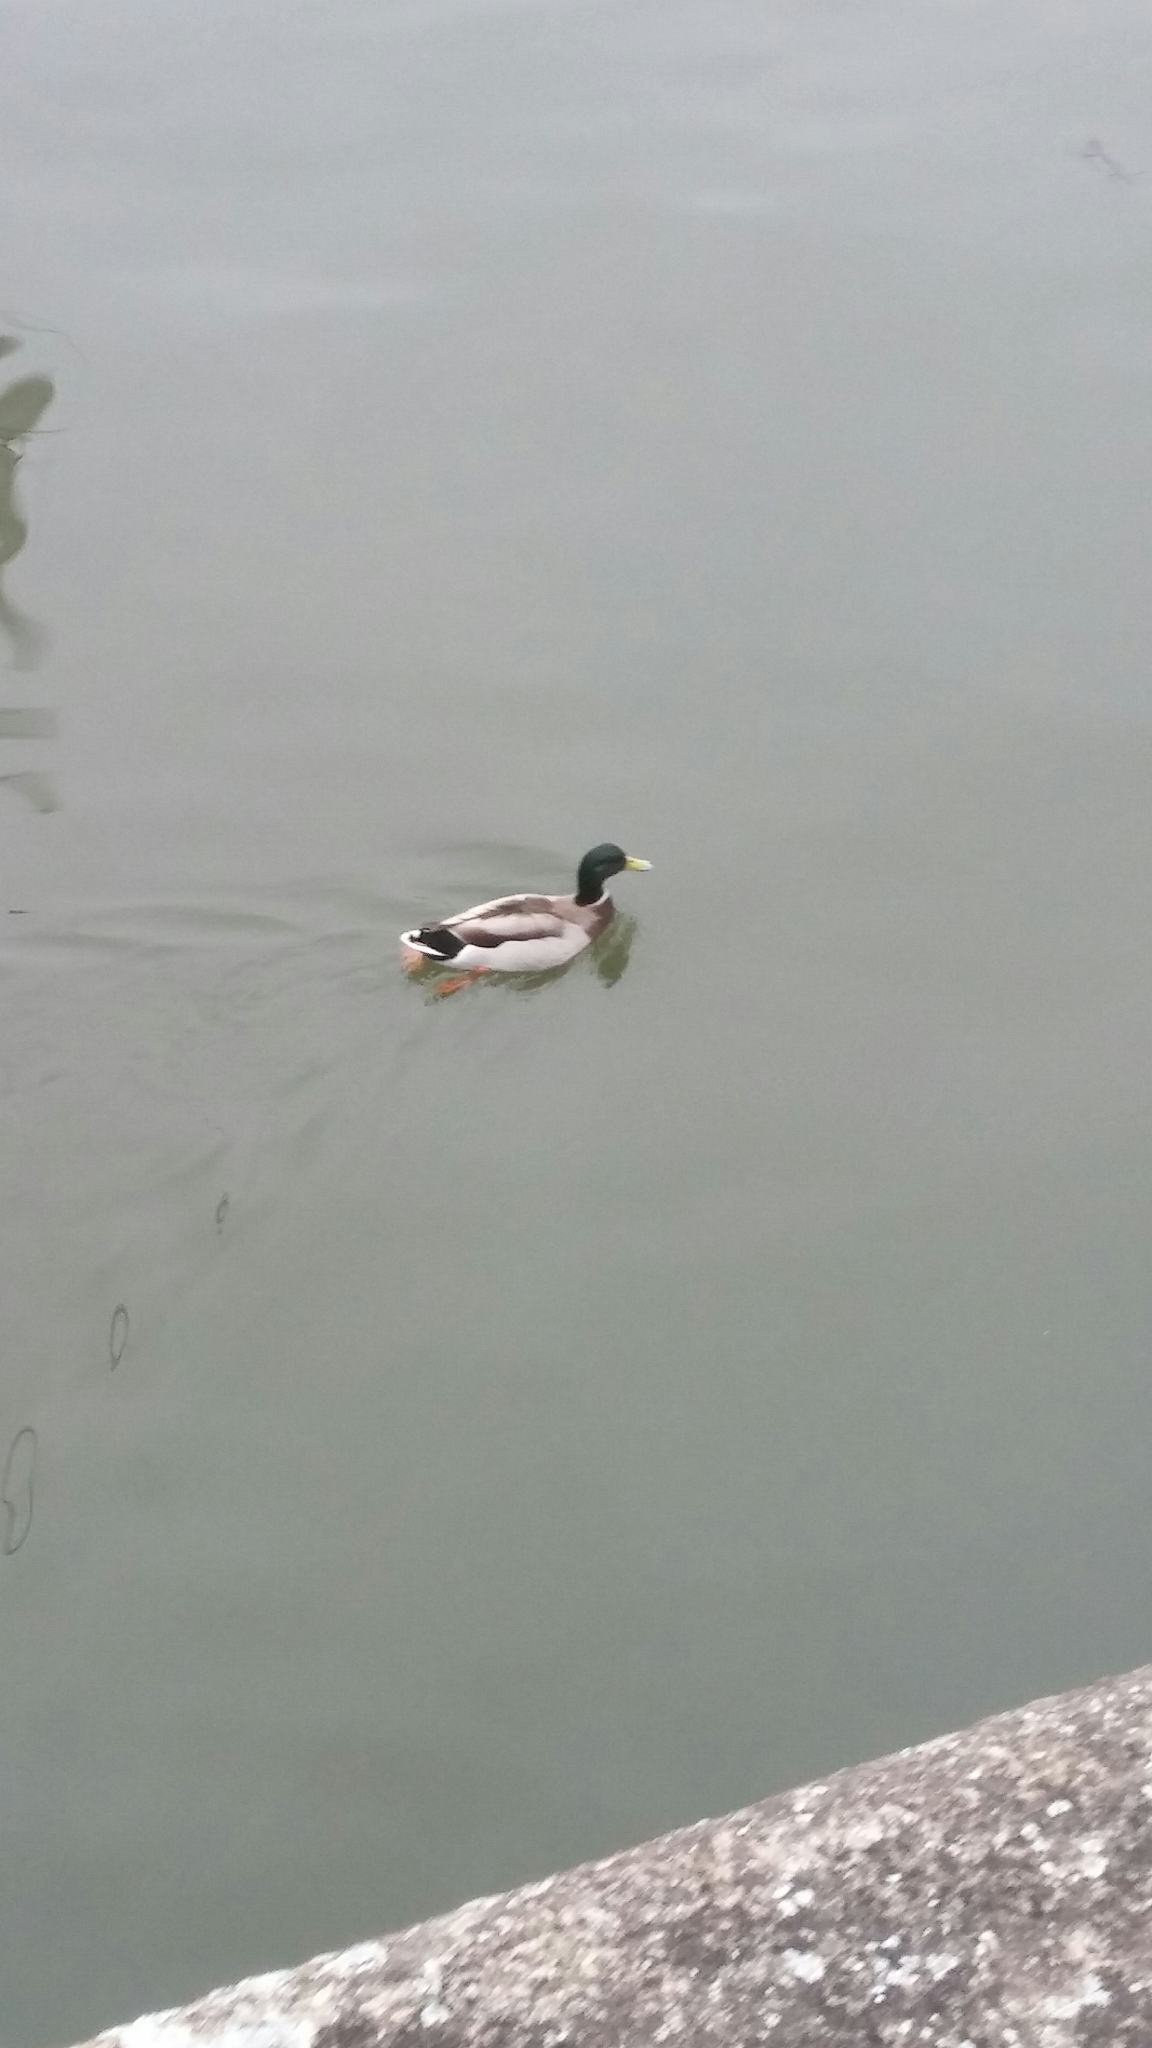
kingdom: Animalia
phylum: Chordata
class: Aves
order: Anseriformes
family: Anatidae
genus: Anas
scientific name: Anas platyrhynchos
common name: Mallard
